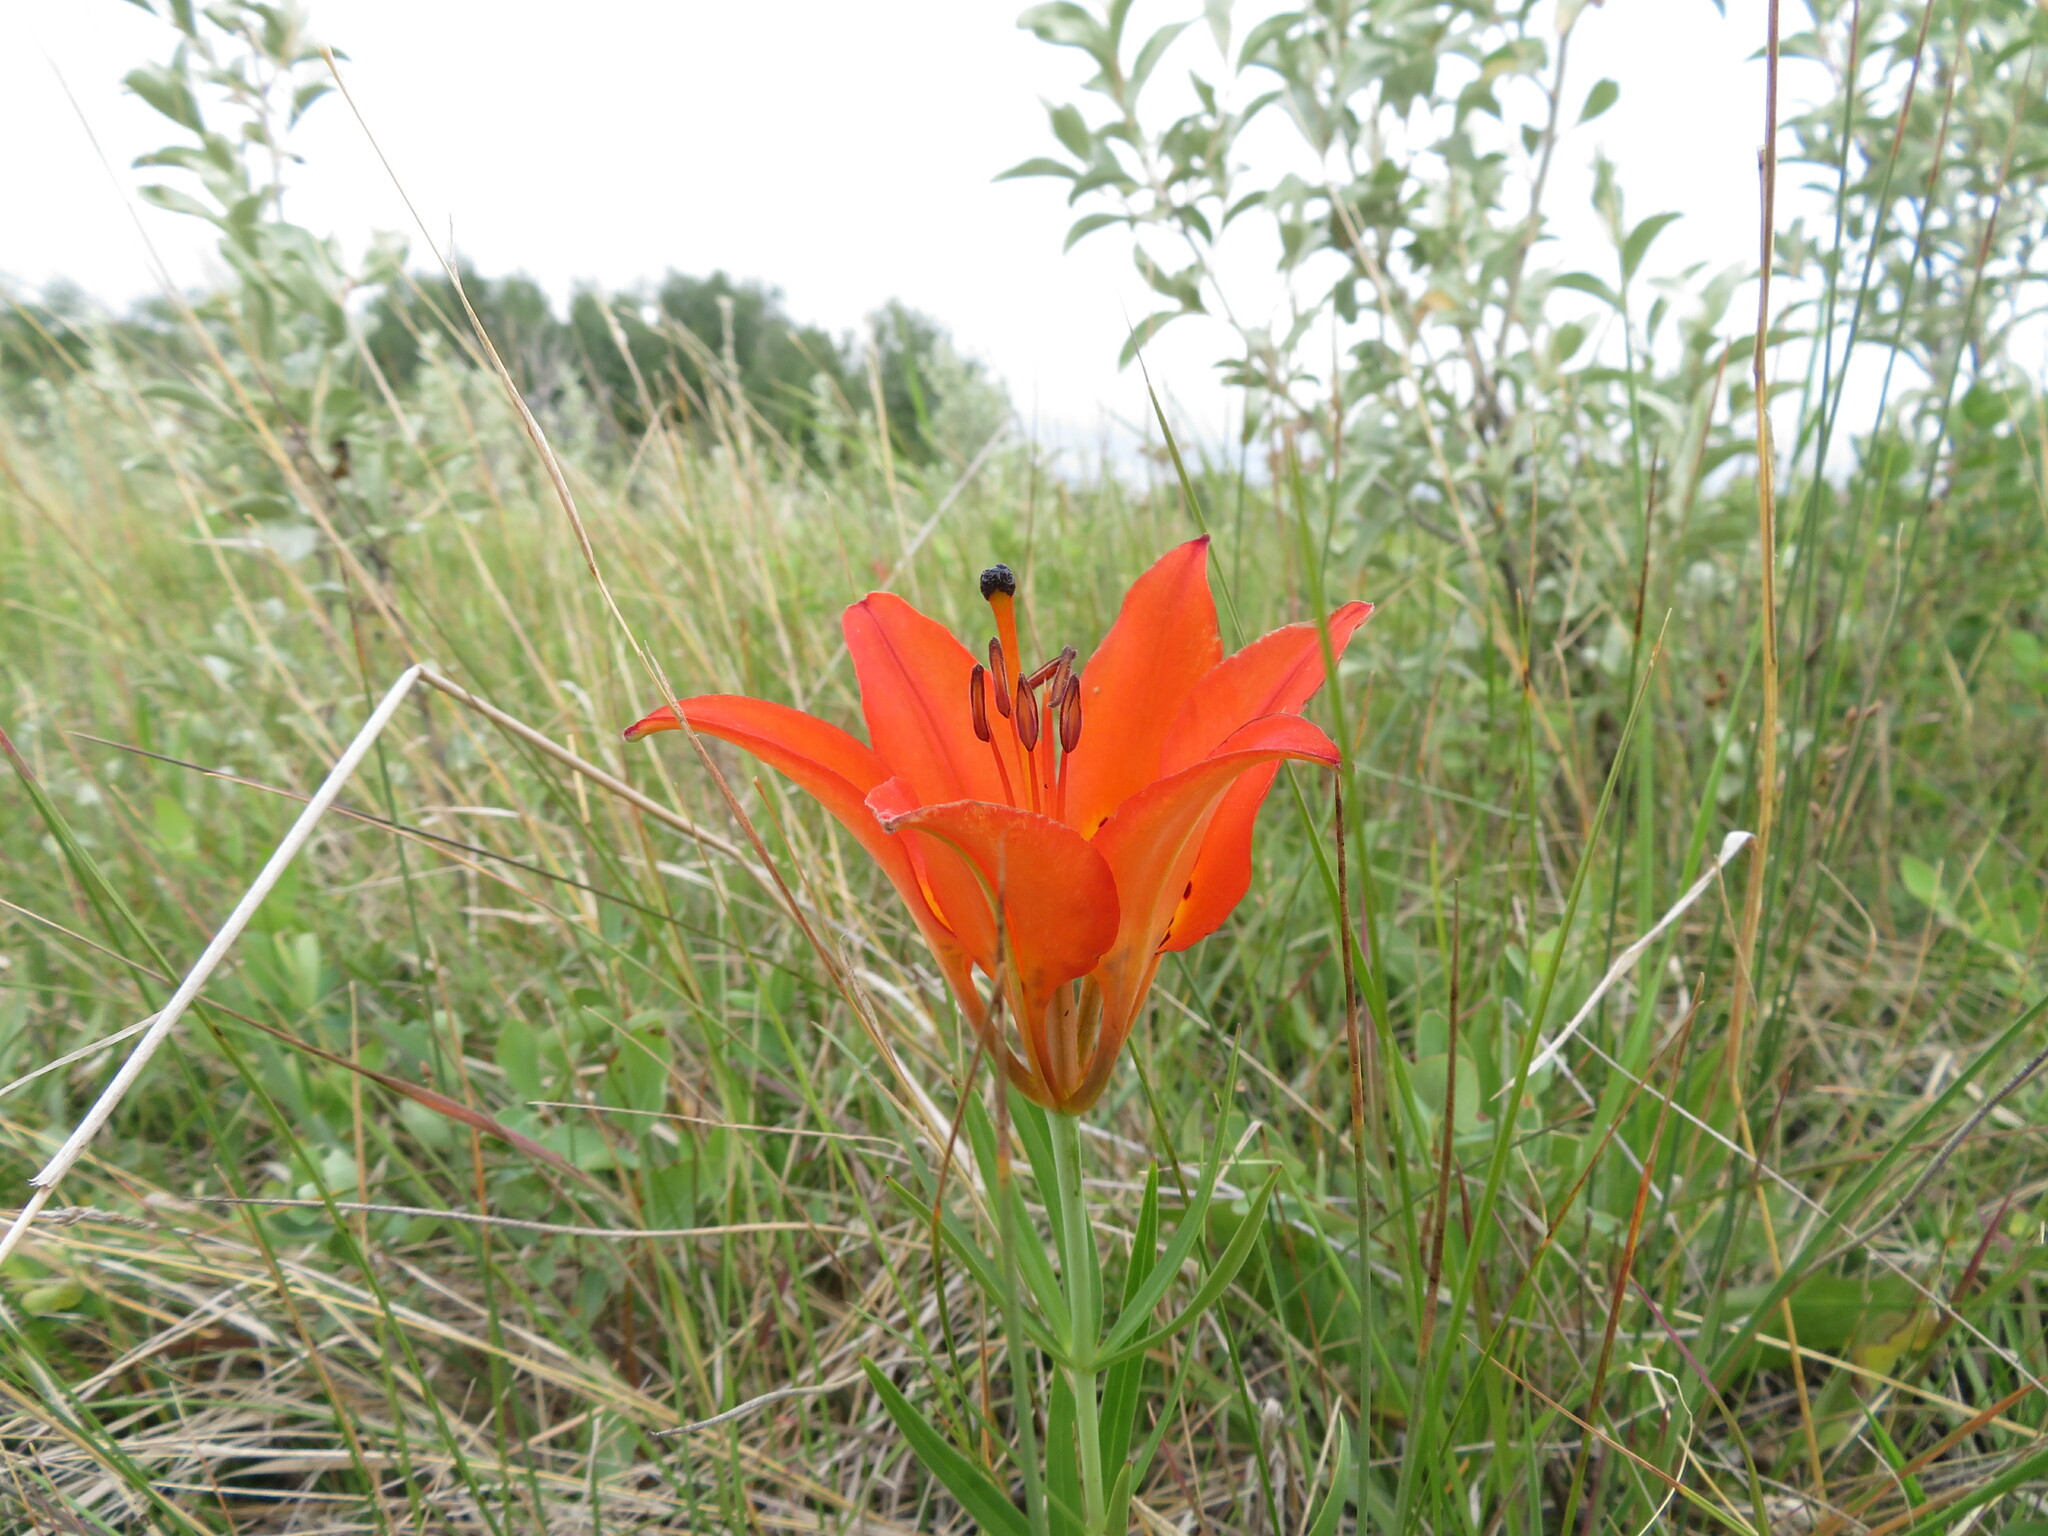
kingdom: Plantae
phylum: Tracheophyta
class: Liliopsida
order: Liliales
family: Liliaceae
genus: Lilium
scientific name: Lilium philadelphicum
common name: Red lily
